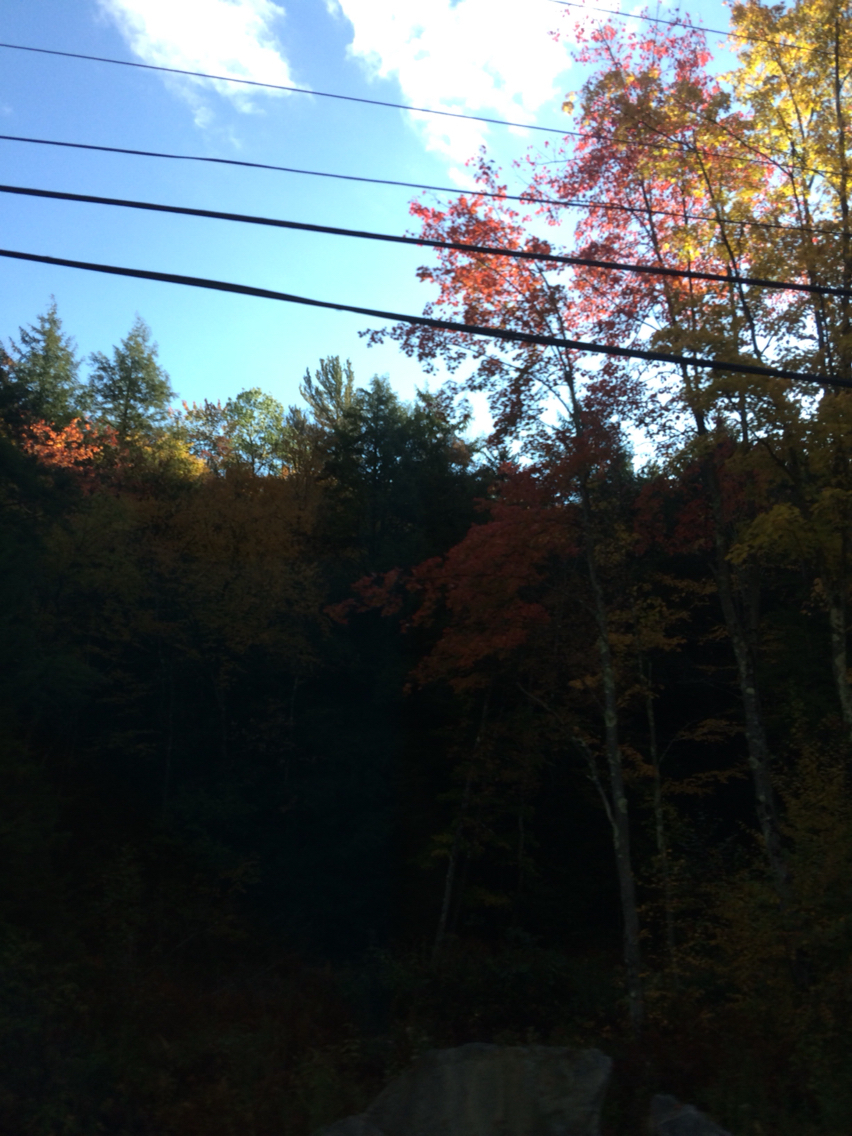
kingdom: Plantae
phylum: Tracheophyta
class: Magnoliopsida
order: Sapindales
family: Sapindaceae
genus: Acer
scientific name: Acer rubrum
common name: Red maple
